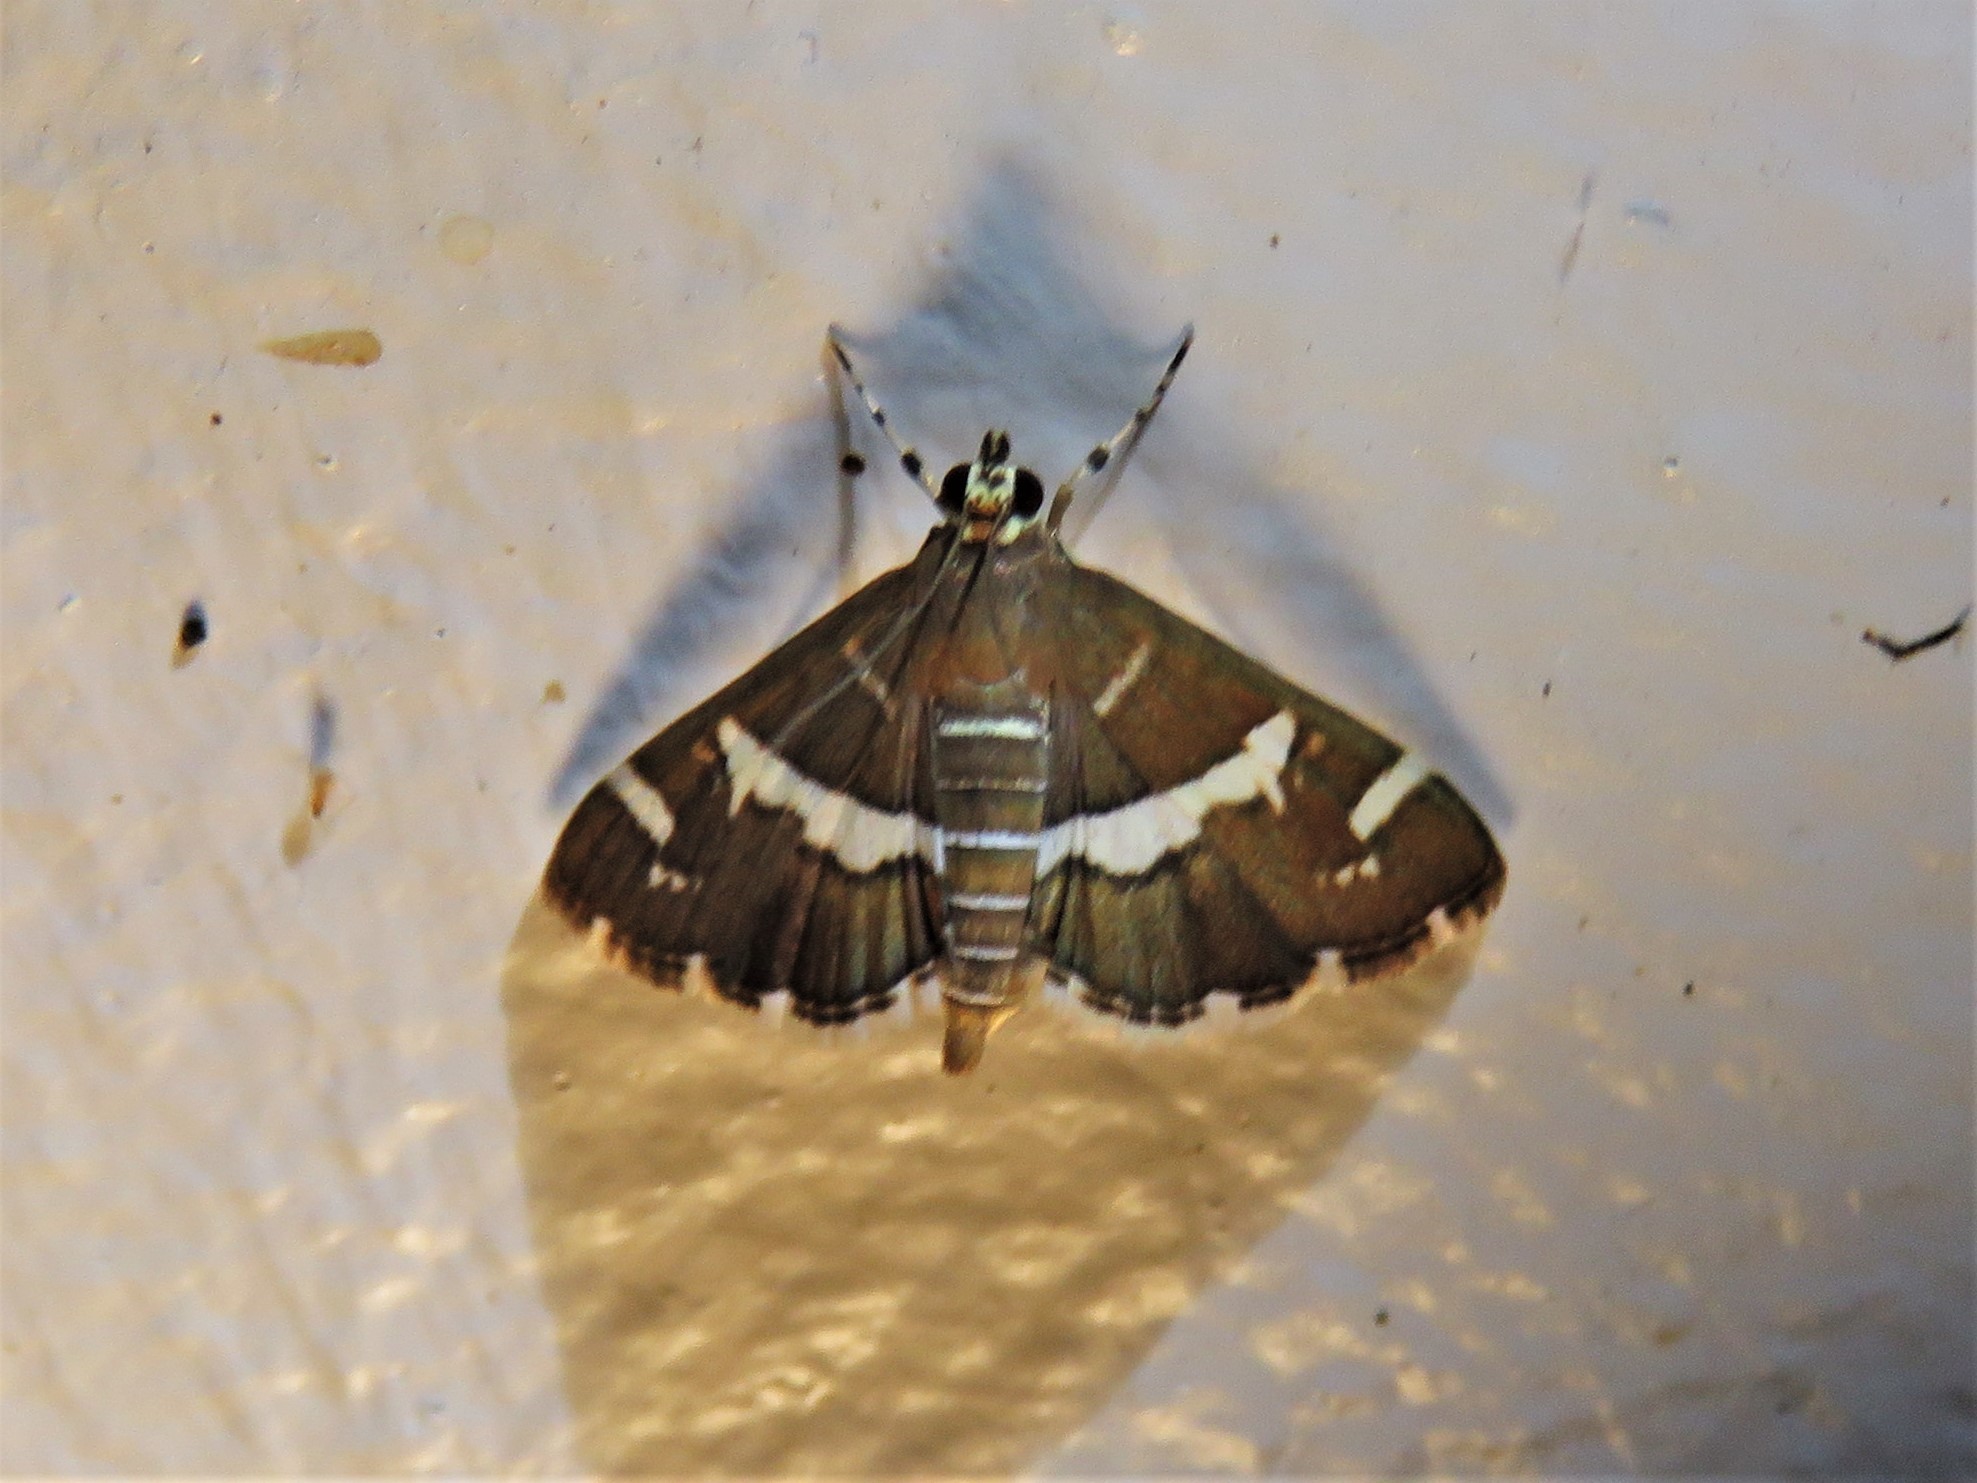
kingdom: Animalia
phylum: Arthropoda
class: Insecta
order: Lepidoptera
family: Crambidae
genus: Spoladea
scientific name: Spoladea recurvalis
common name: Beet webworm moth
